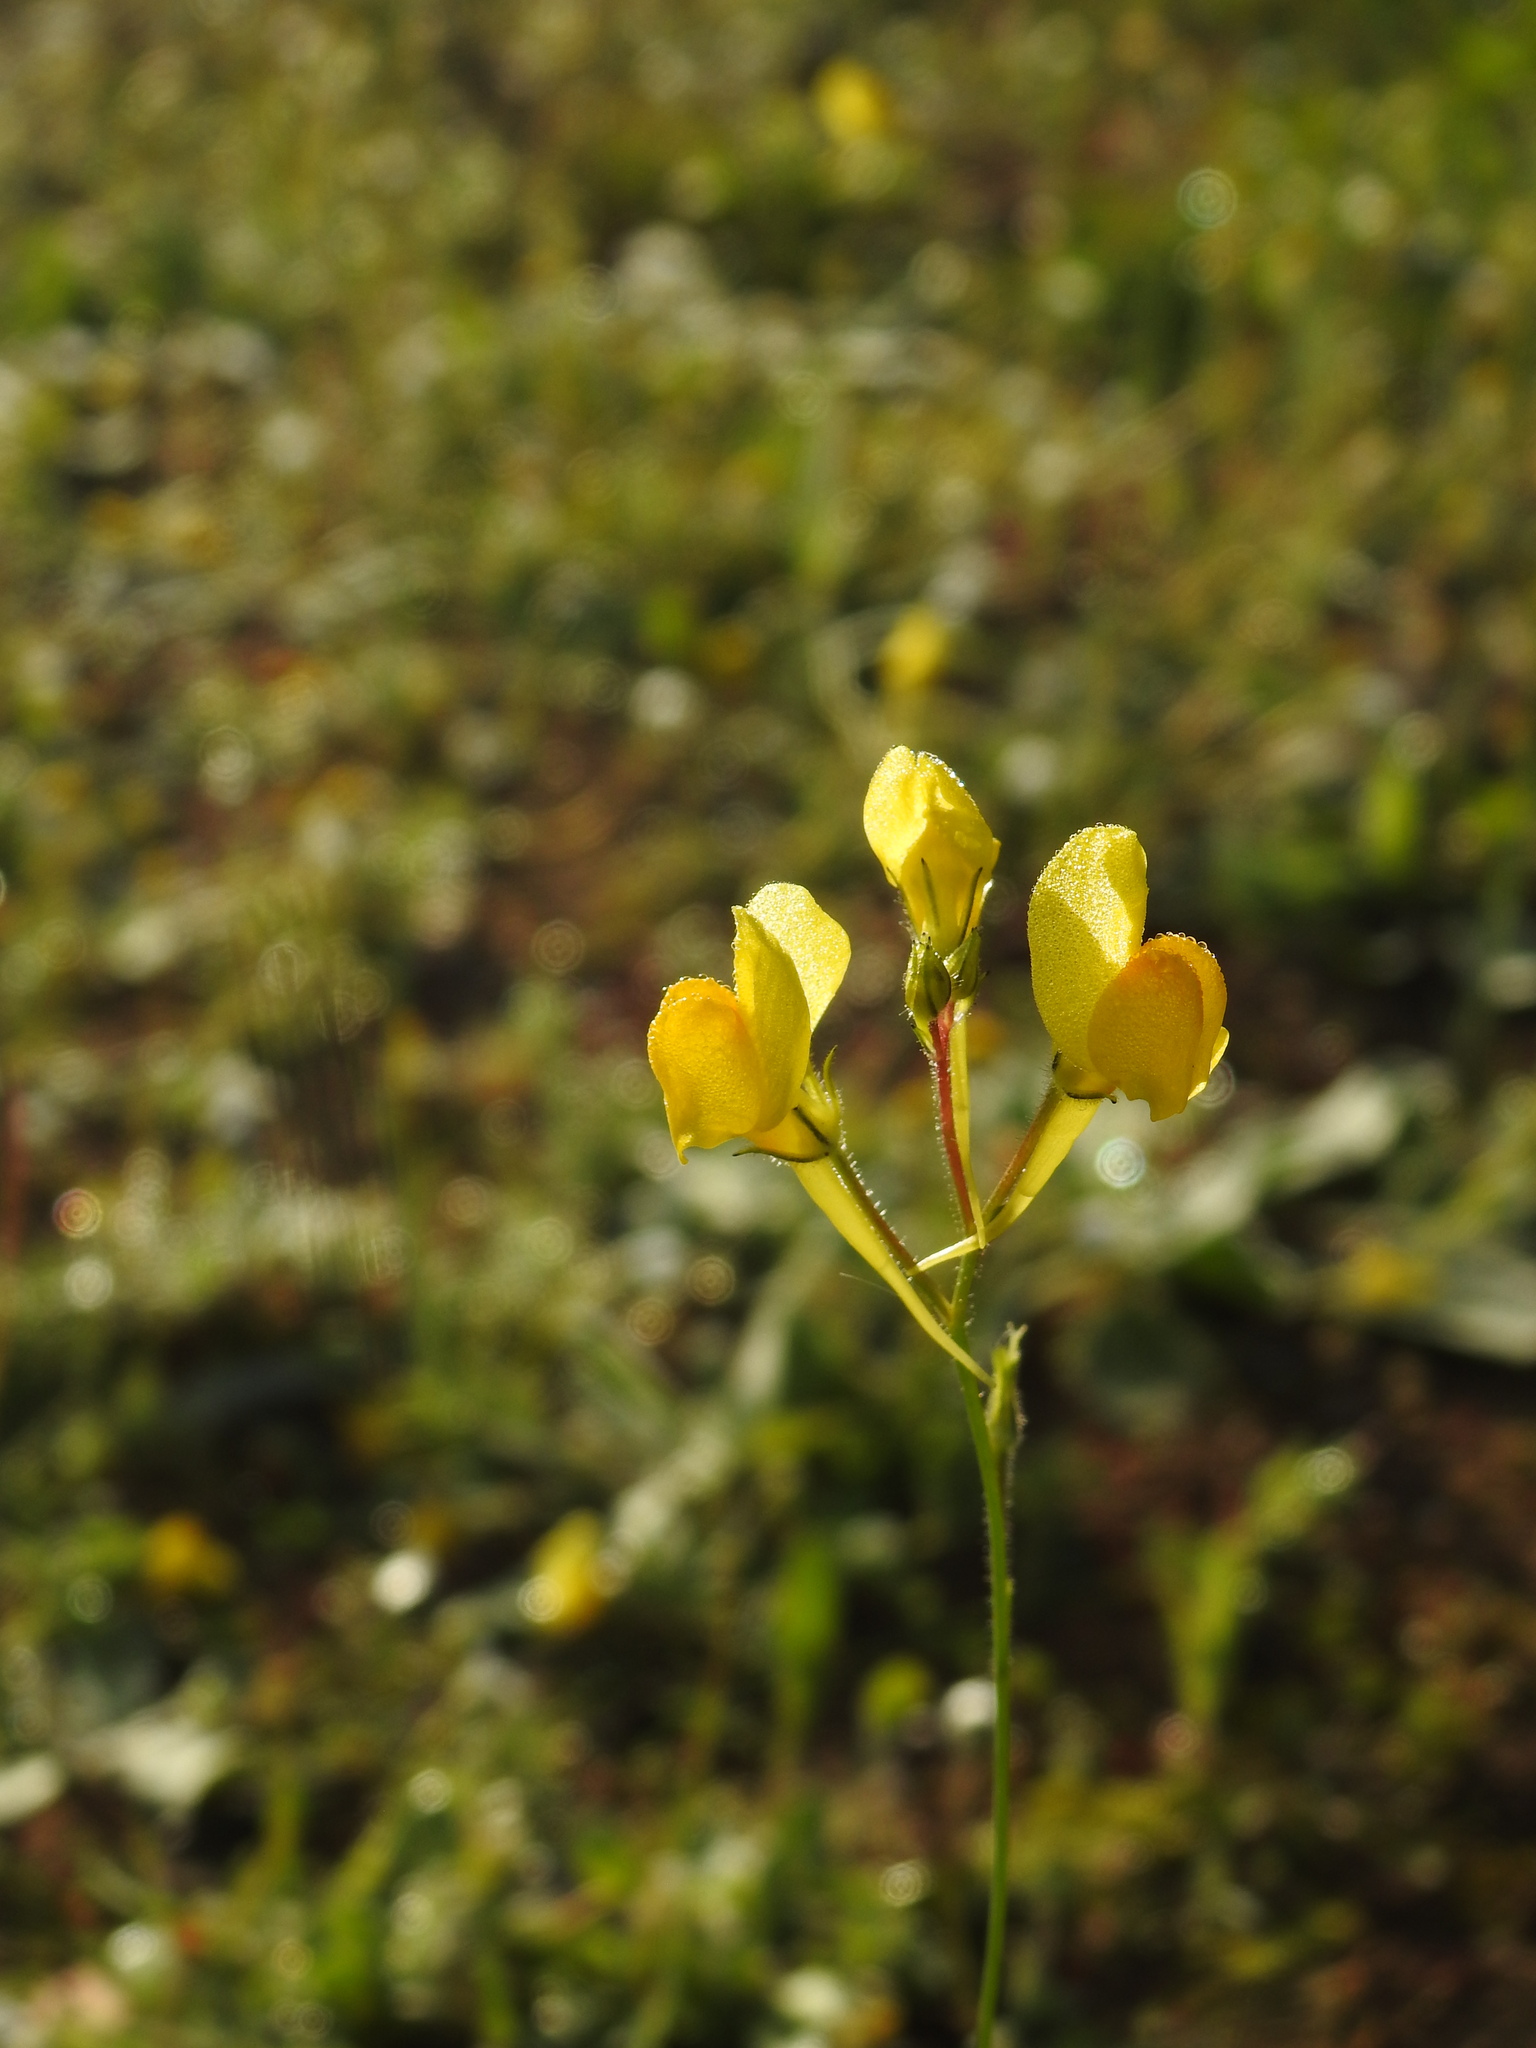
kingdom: Plantae
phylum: Tracheophyta
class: Magnoliopsida
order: Lamiales
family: Plantaginaceae
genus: Linaria
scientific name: Linaria spartea
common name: Ballast toadflax
